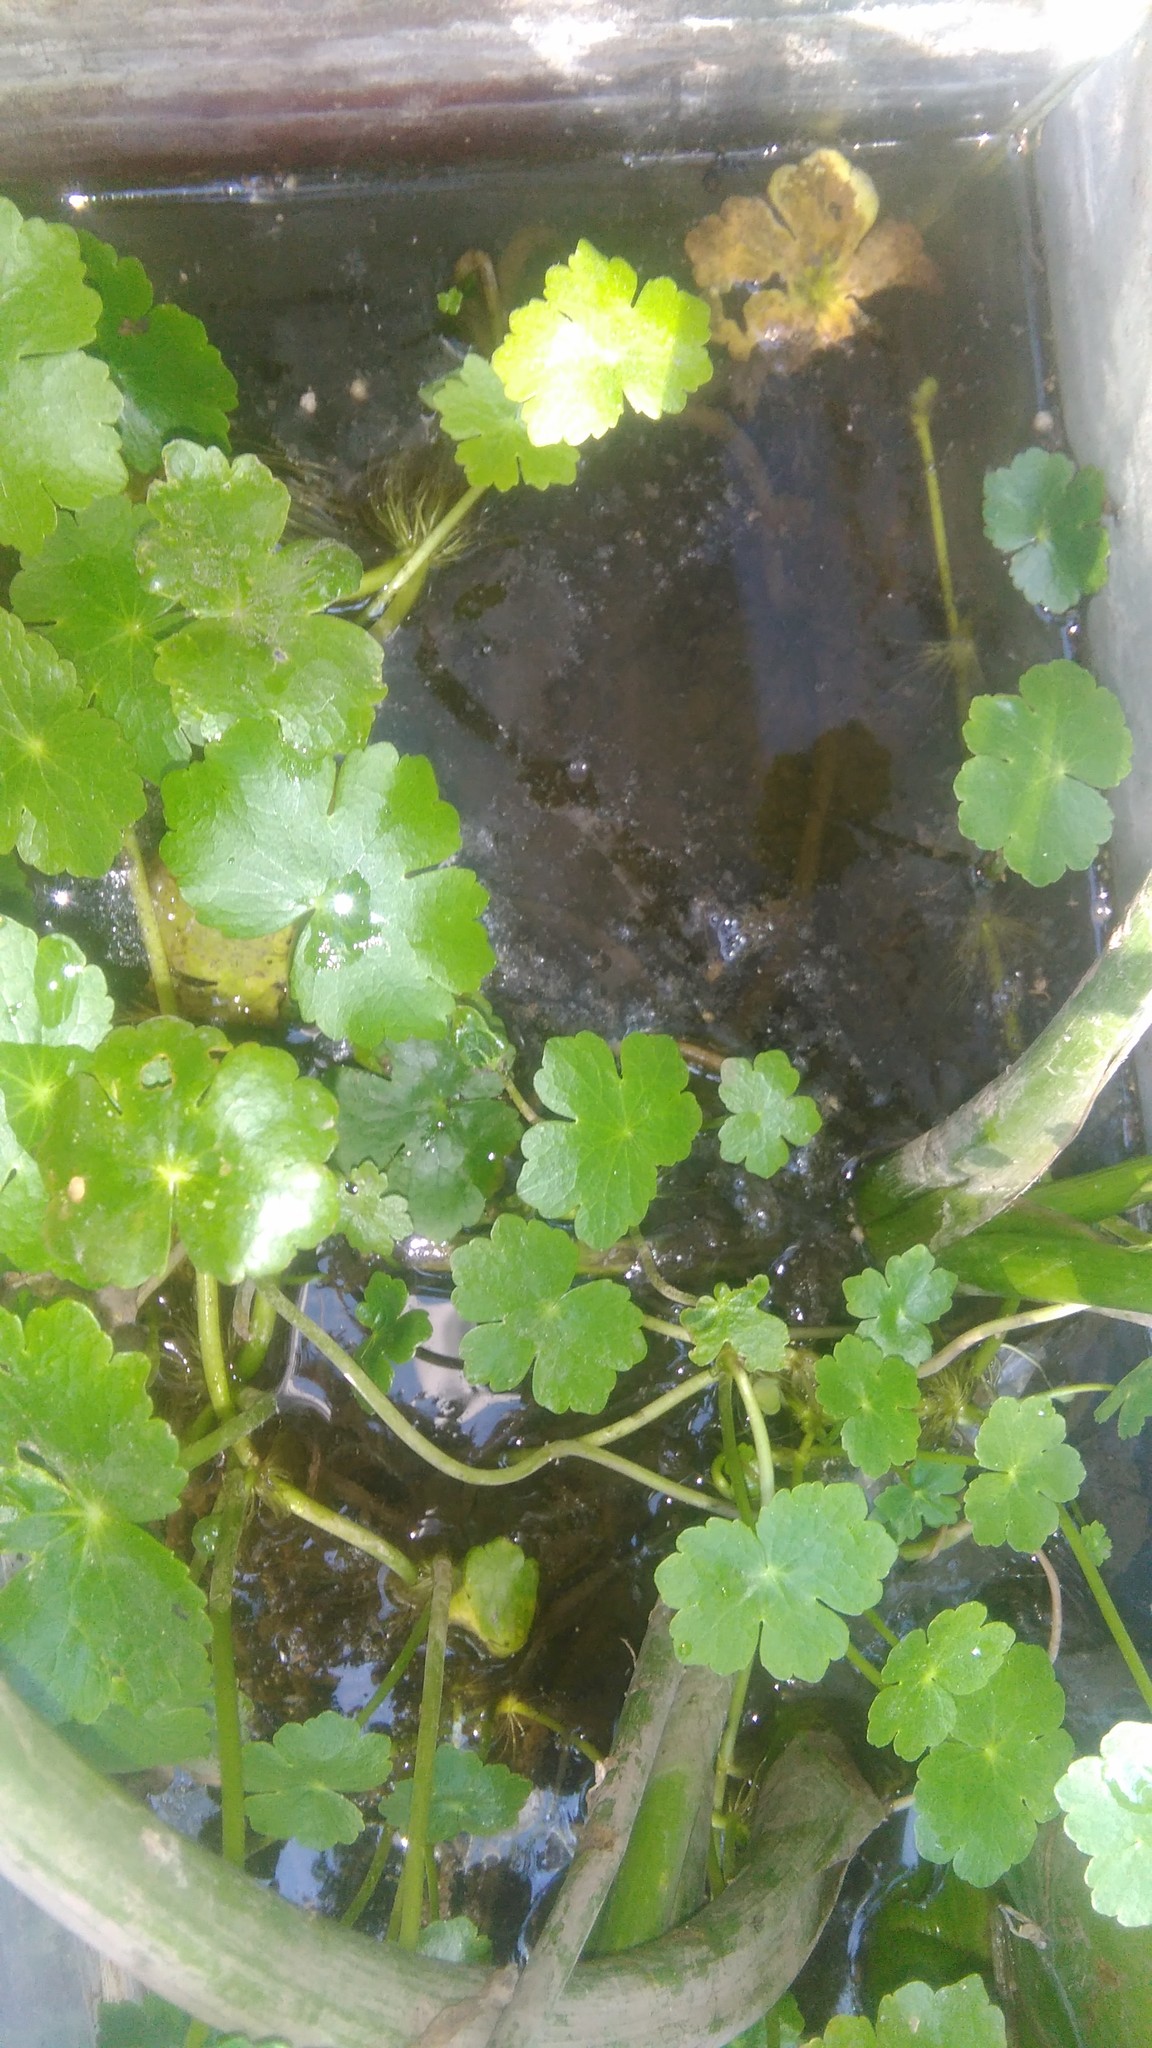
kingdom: Plantae
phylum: Tracheophyta
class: Magnoliopsida
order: Apiales
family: Araliaceae
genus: Hydrocotyle
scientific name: Hydrocotyle ranunculoides
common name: Floating pennywort
